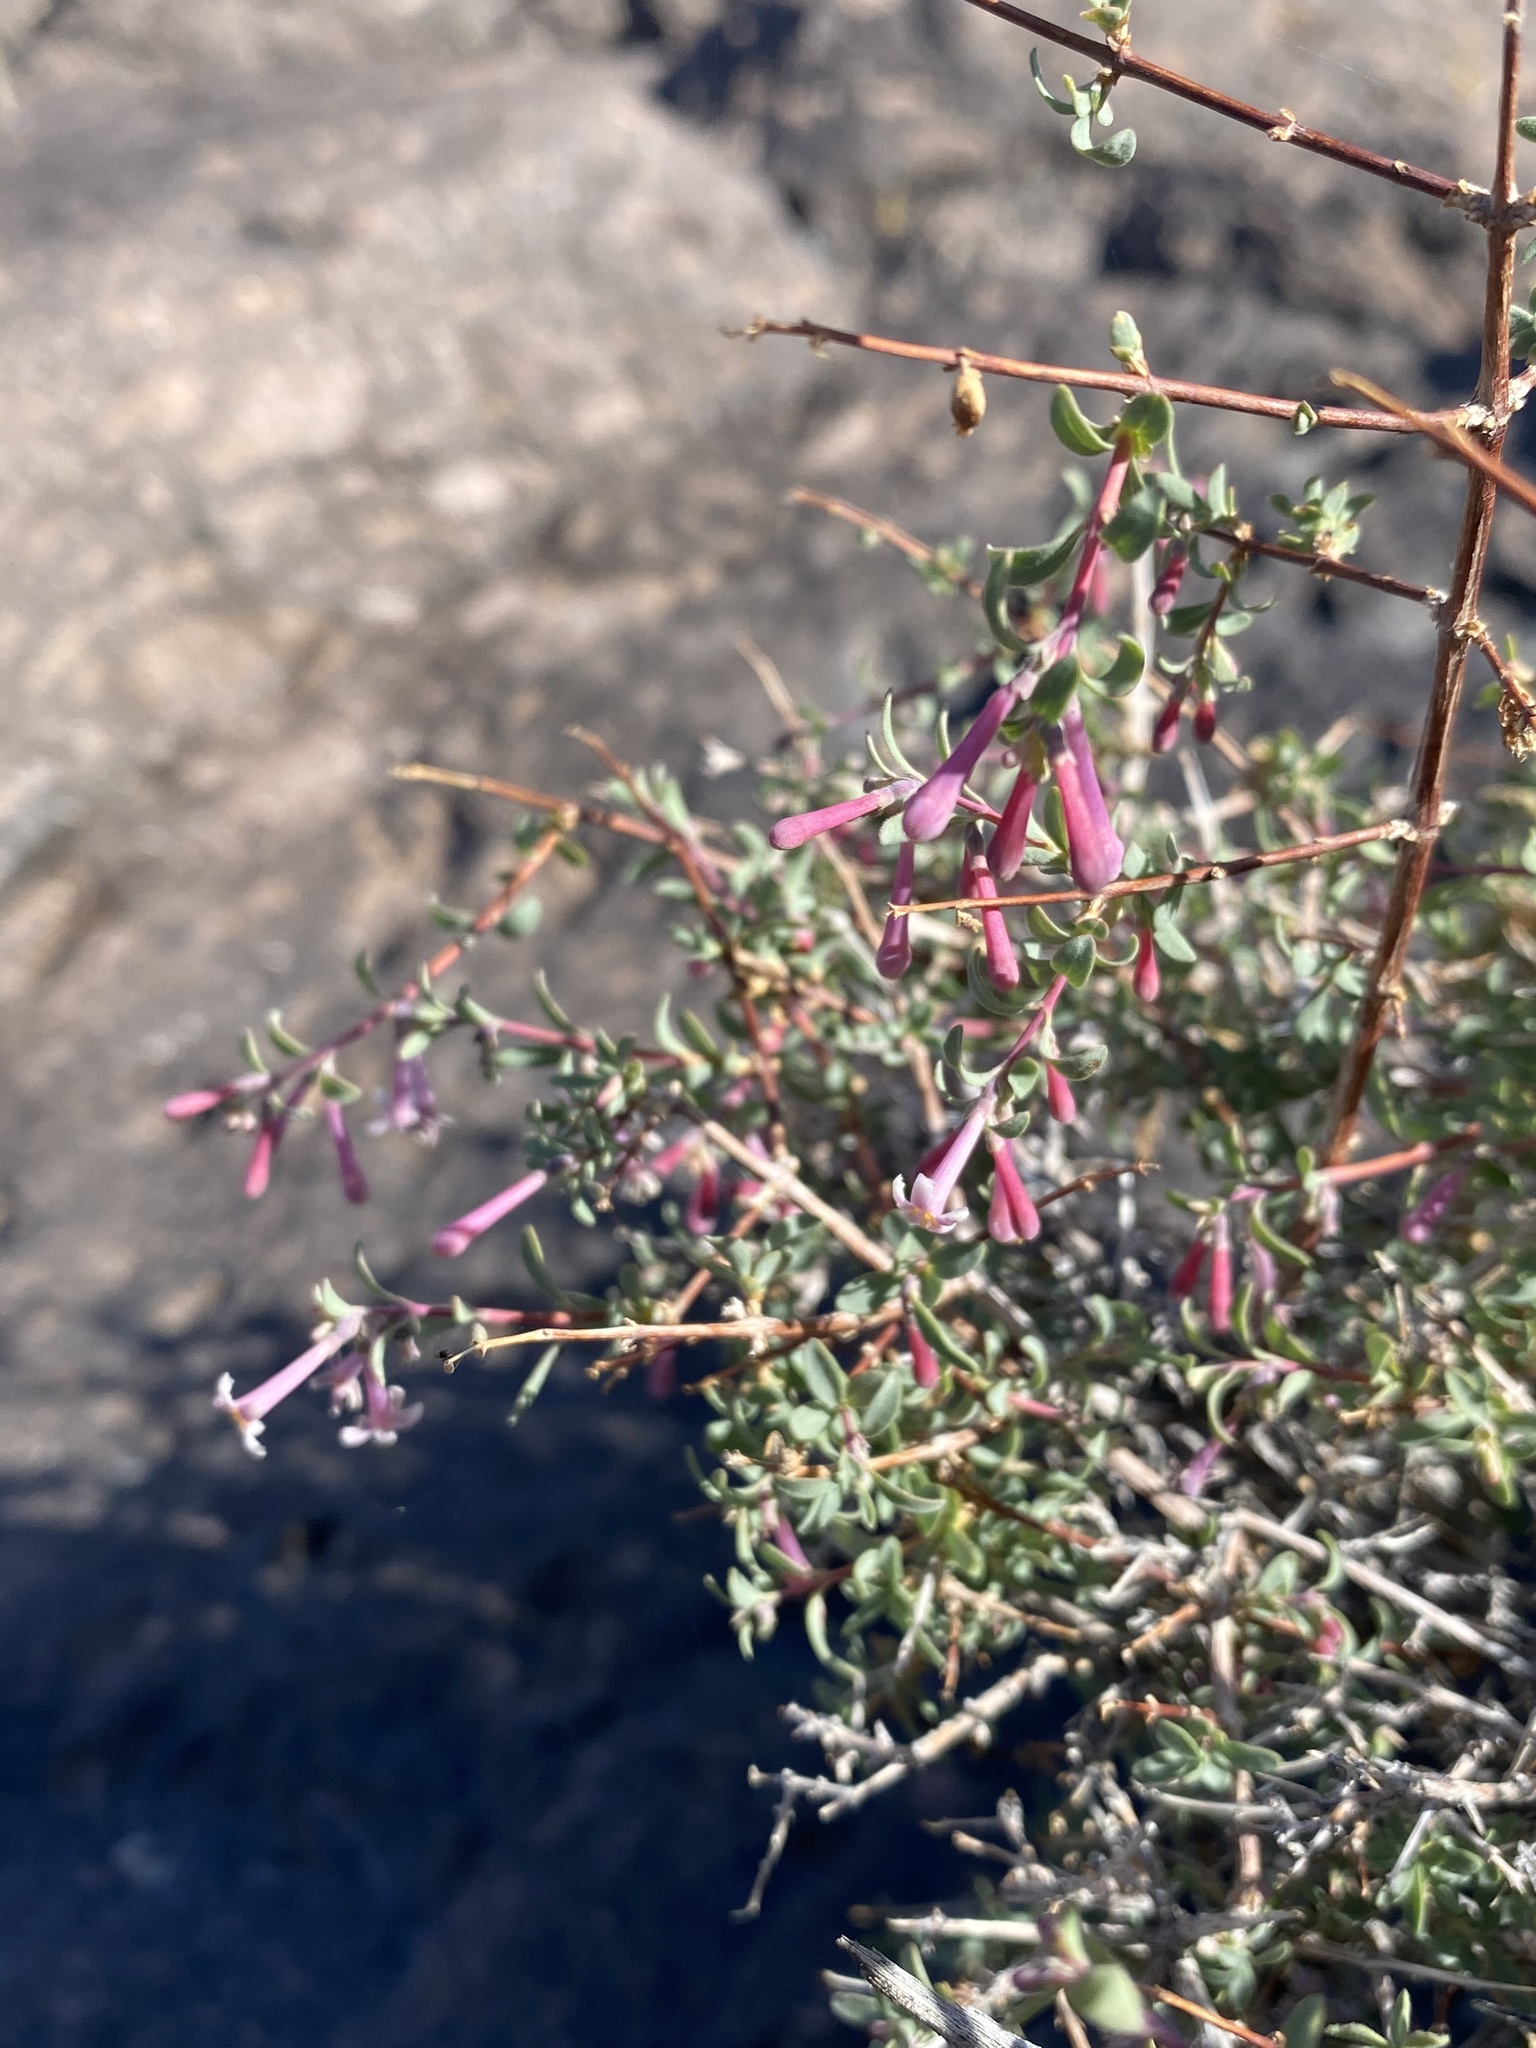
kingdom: Plantae
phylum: Tracheophyta
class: Magnoliopsida
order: Dipsacales
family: Caprifoliaceae
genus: Symphoricarpos
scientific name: Symphoricarpos longiflorus
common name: Fragrant snowberry
